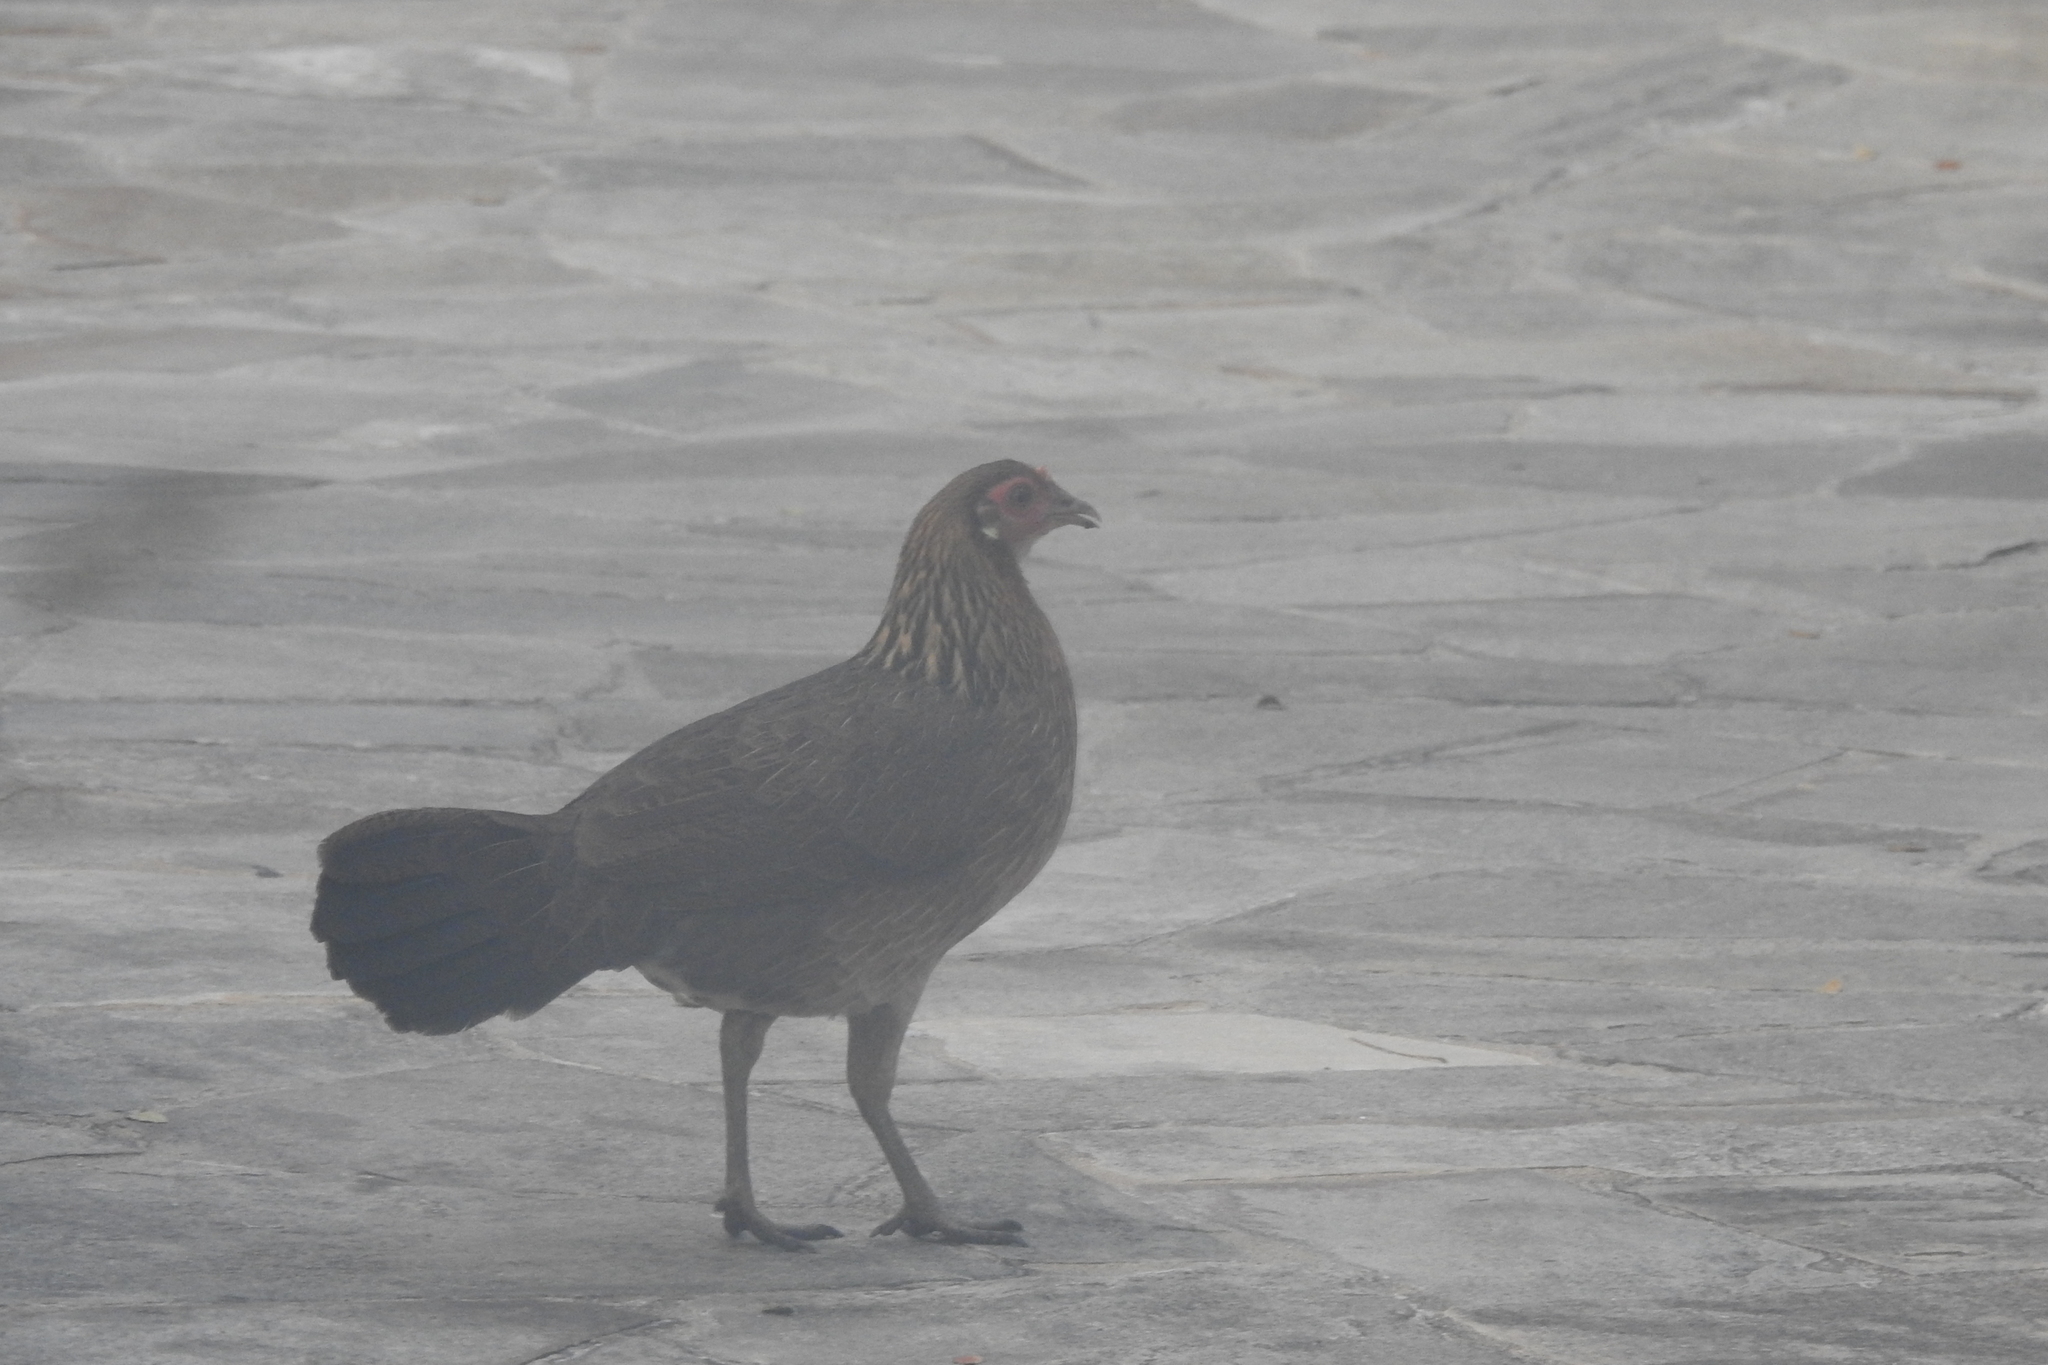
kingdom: Animalia
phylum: Chordata
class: Aves
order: Galliformes
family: Phasianidae
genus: Gallus
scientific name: Gallus gallus
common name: Red junglefowl
